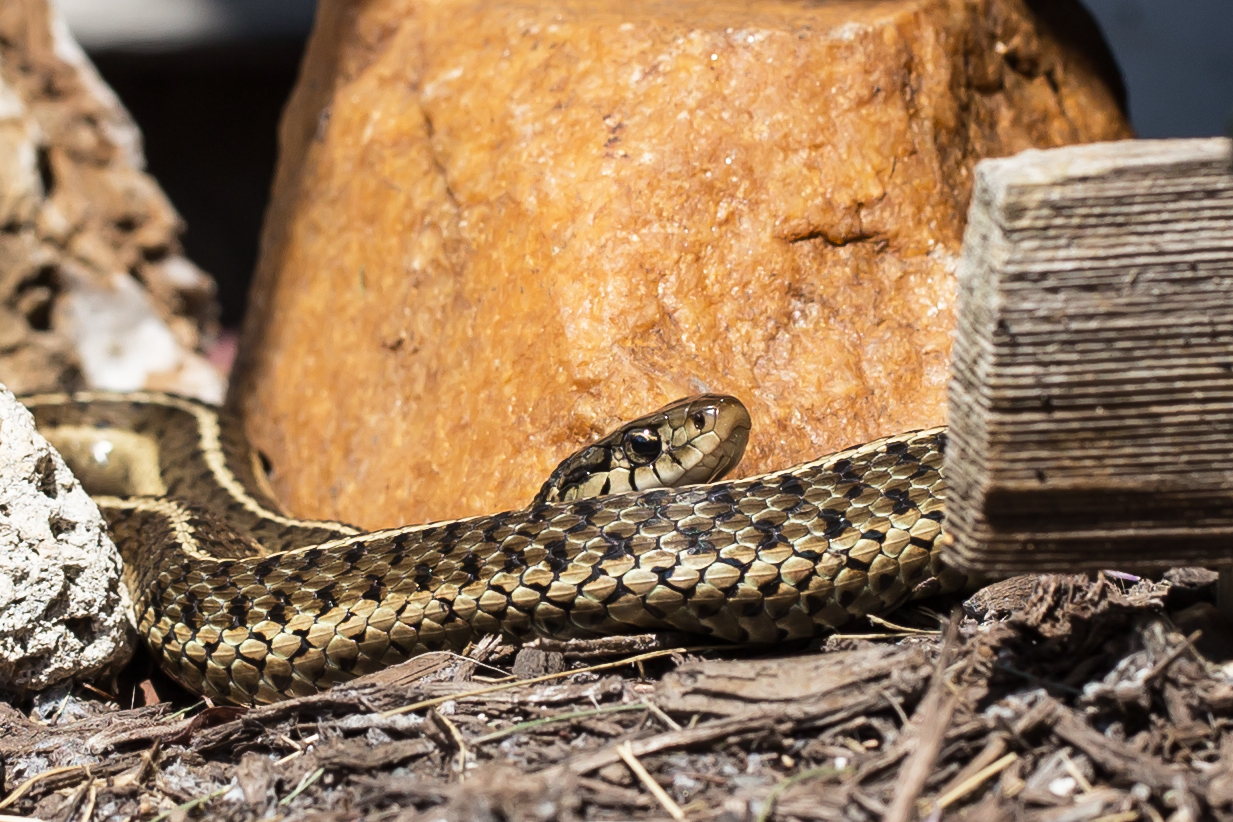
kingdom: Animalia
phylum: Chordata
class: Squamata
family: Colubridae
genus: Thamnophis
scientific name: Thamnophis sirtalis
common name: Common garter snake
